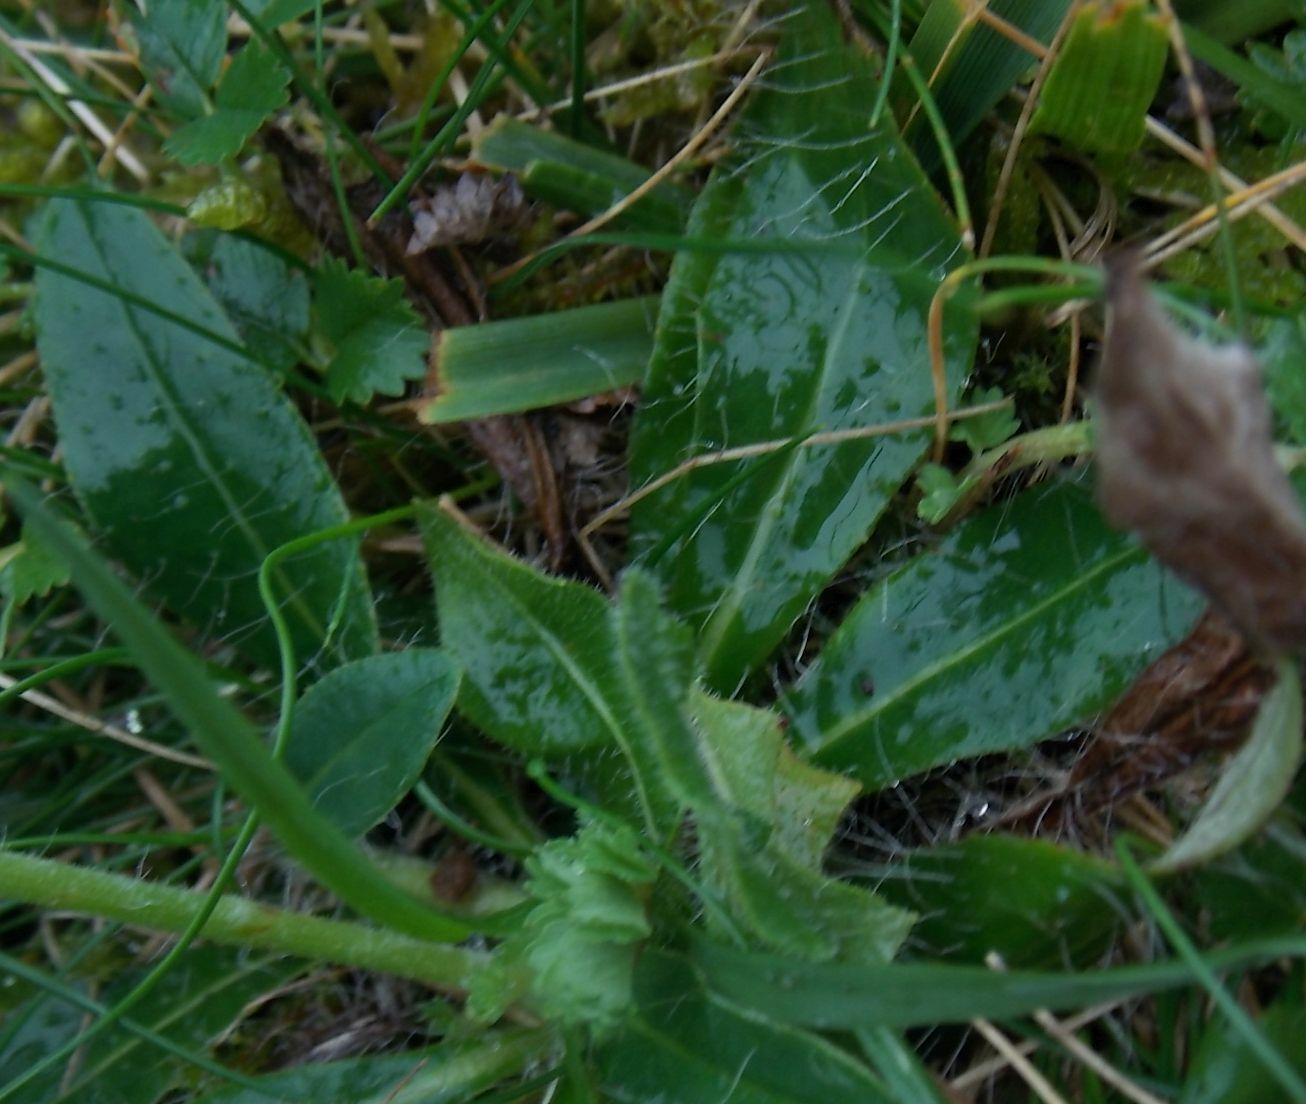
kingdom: Plantae
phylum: Tracheophyta
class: Magnoliopsida
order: Asterales
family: Asteraceae
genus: Pilosella
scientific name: Pilosella officinarum
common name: Mouse-ear hawkweed
